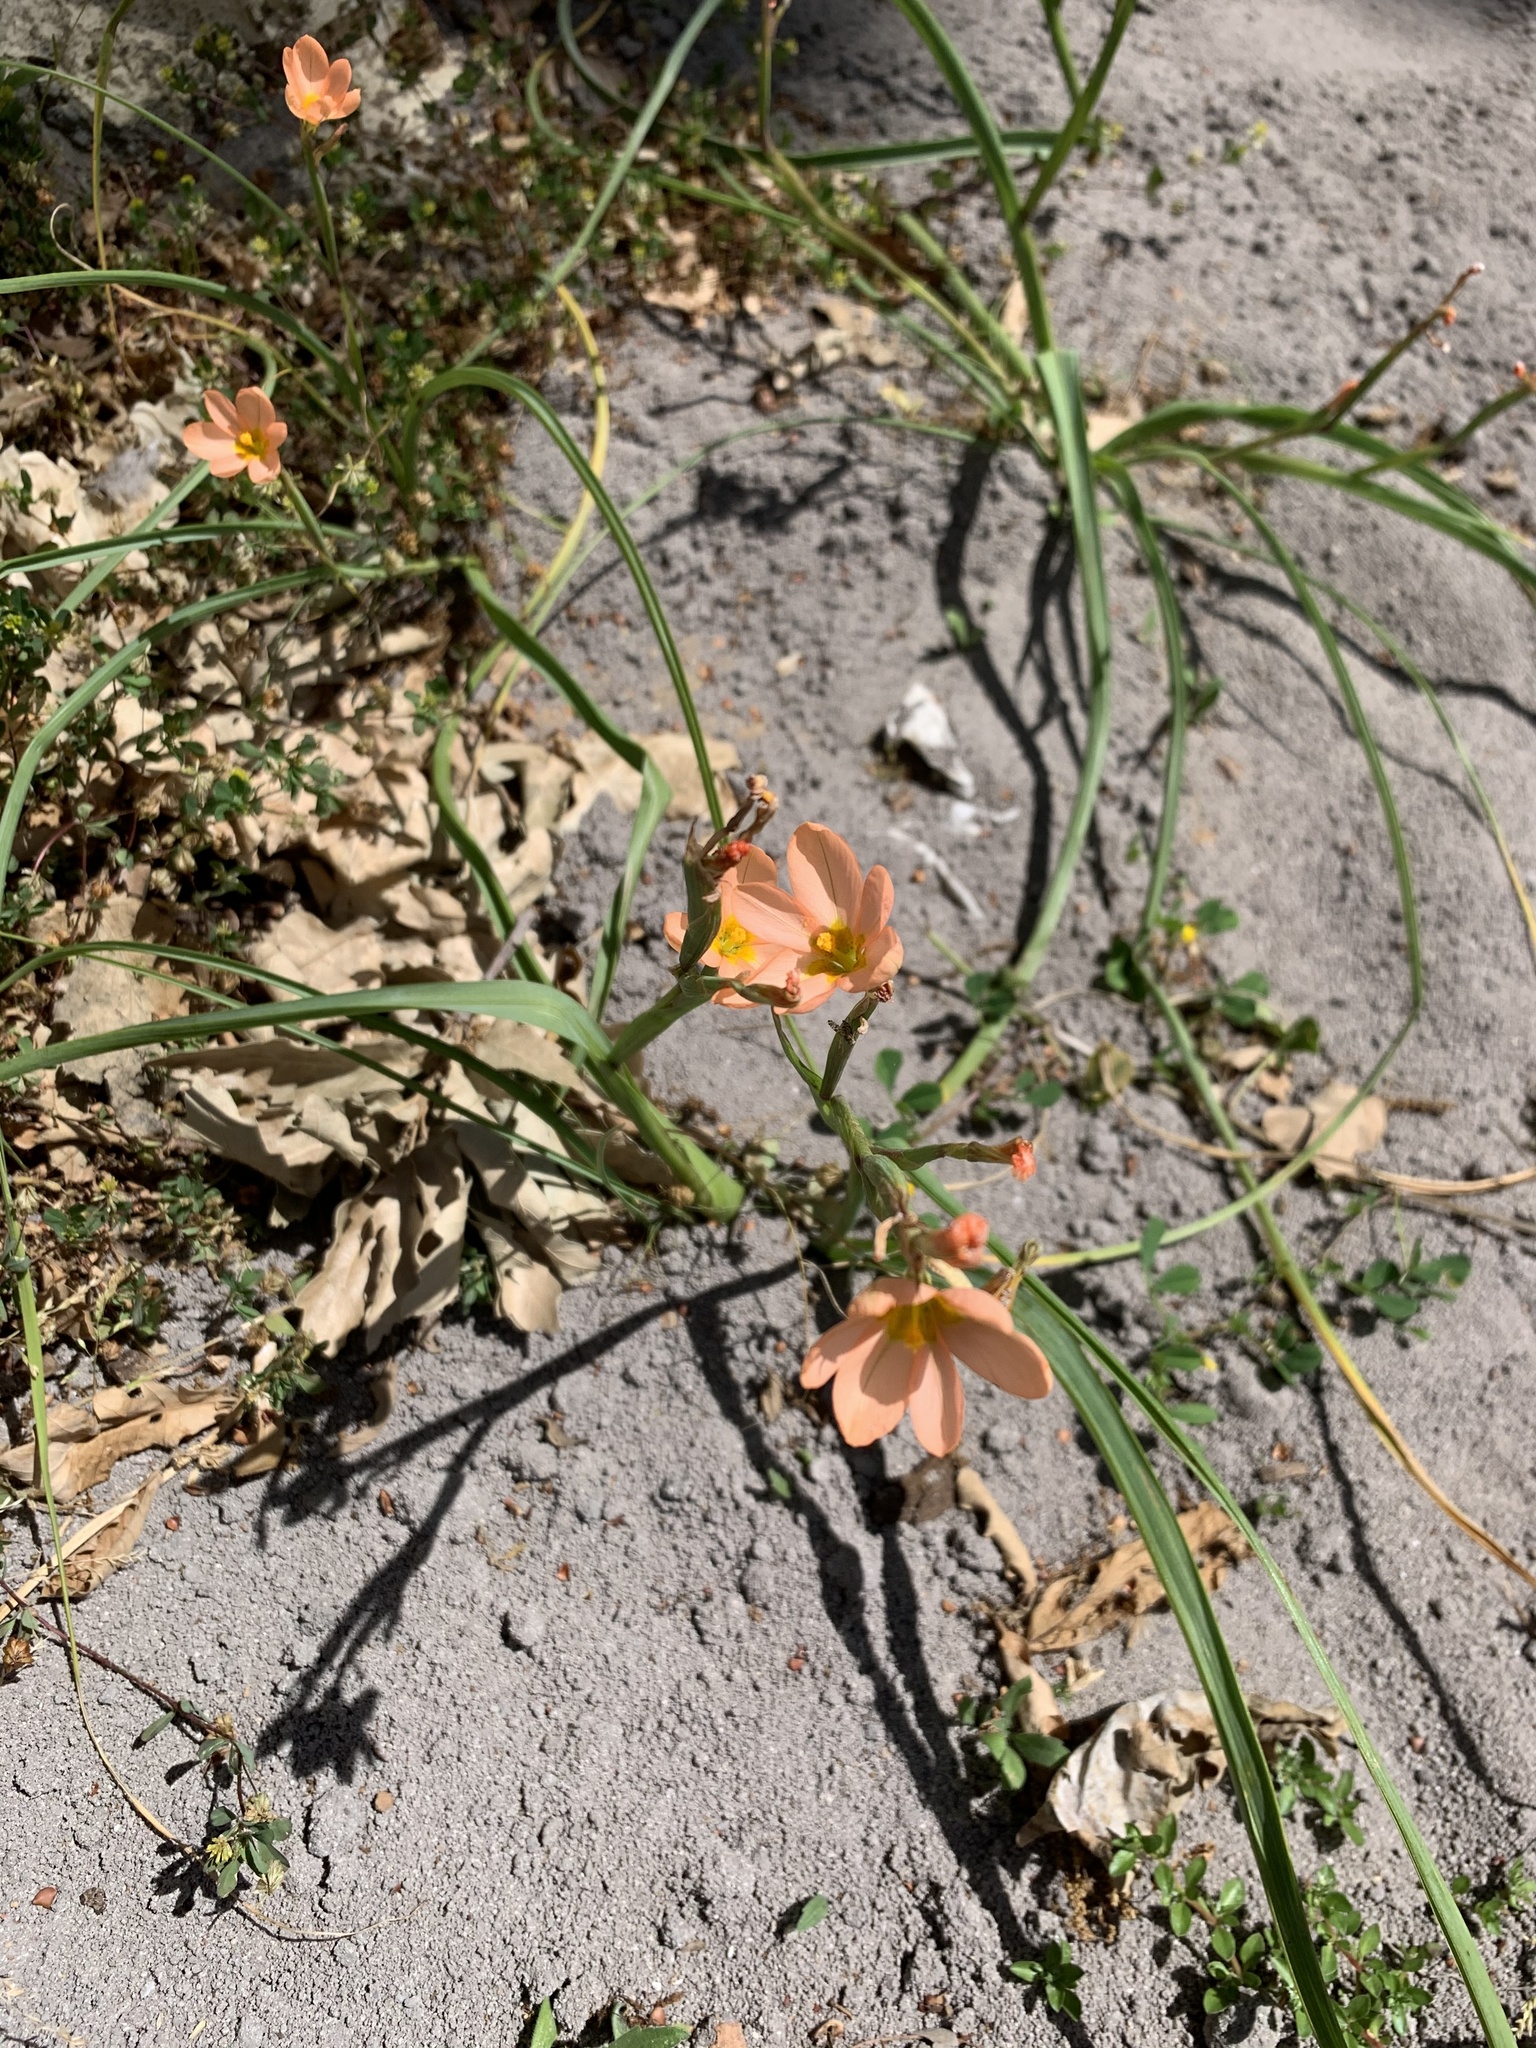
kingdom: Plantae
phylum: Tracheophyta
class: Liliopsida
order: Asparagales
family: Iridaceae
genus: Moraea
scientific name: Moraea miniata
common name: Two-leaf cape-tulip
